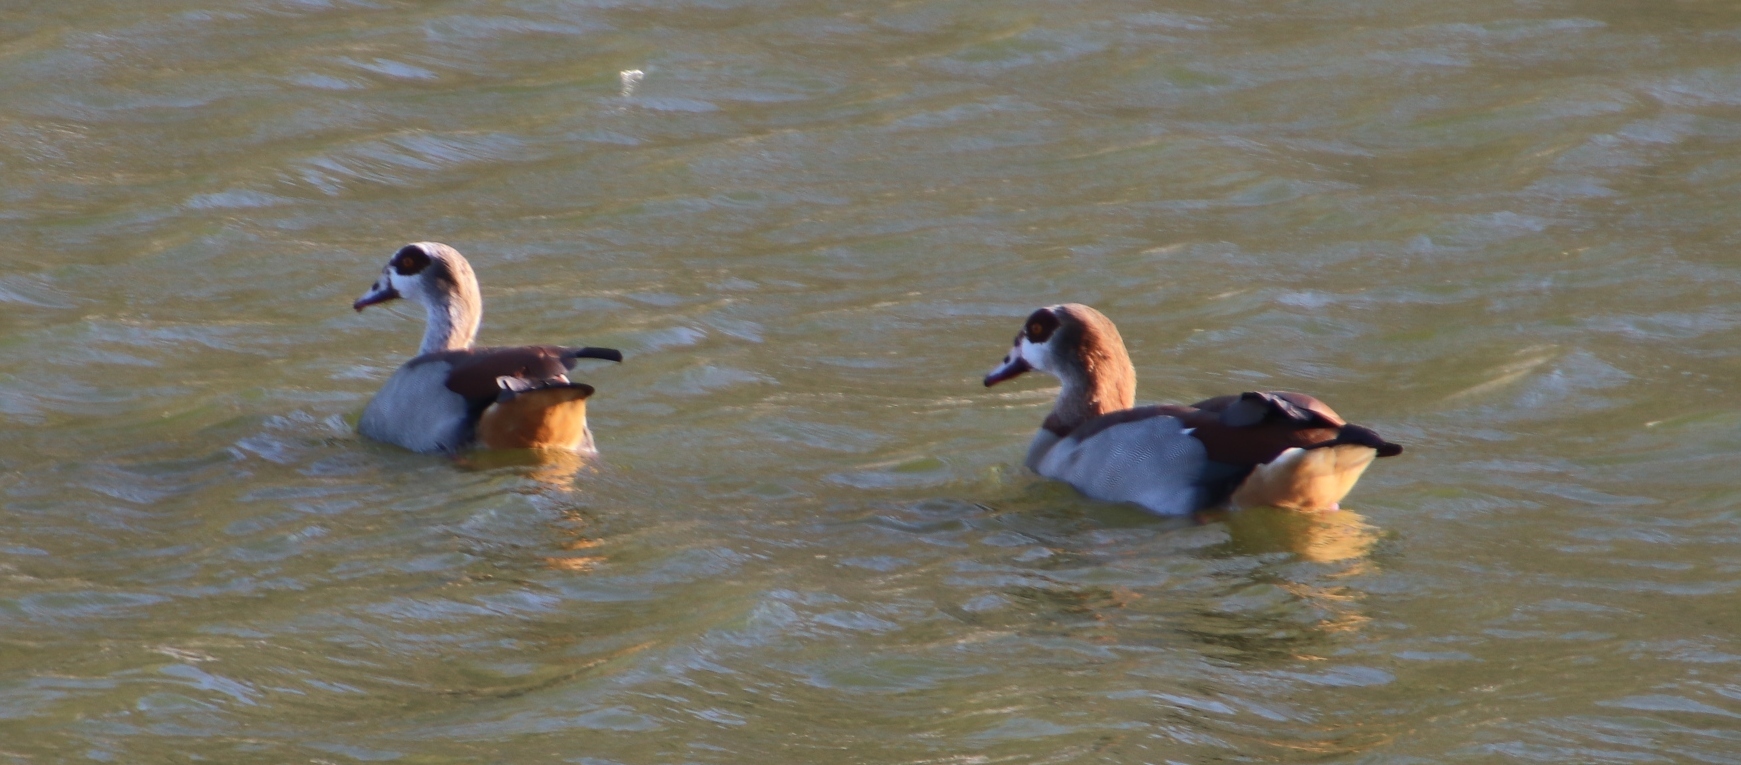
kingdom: Animalia
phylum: Chordata
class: Aves
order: Anseriformes
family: Anatidae
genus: Alopochen
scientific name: Alopochen aegyptiaca
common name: Egyptian goose
